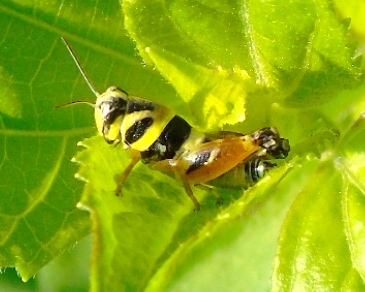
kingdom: Animalia
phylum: Arthropoda
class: Insecta
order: Orthoptera
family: Acrididae
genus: Aidemona
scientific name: Aidemona azteca
